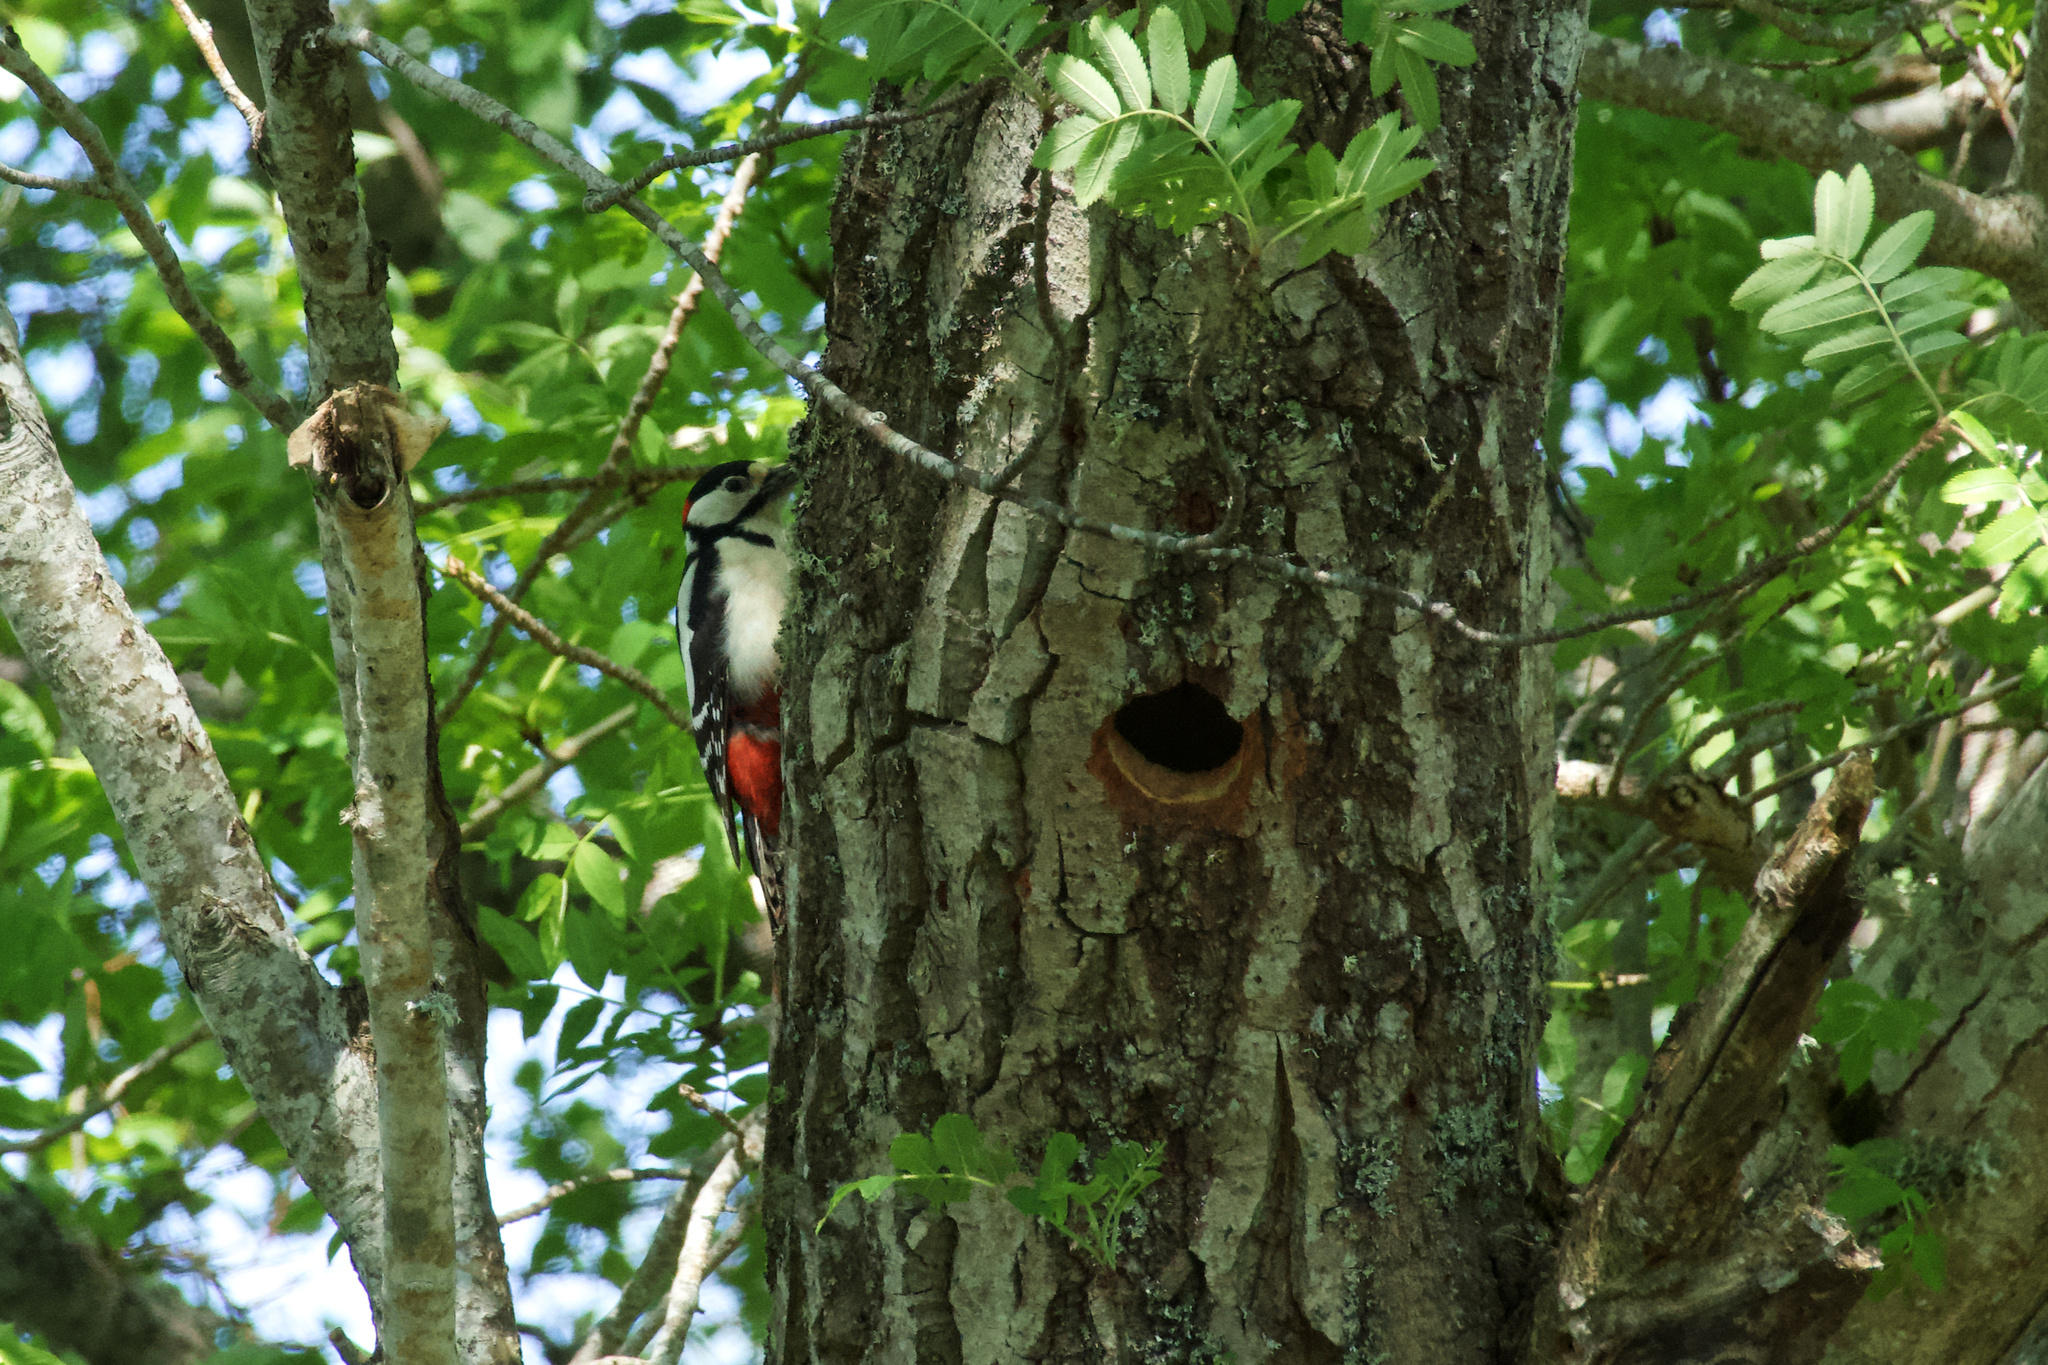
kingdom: Animalia
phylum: Chordata
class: Aves
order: Piciformes
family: Picidae
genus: Dendrocopos
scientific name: Dendrocopos major
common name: Great spotted woodpecker
